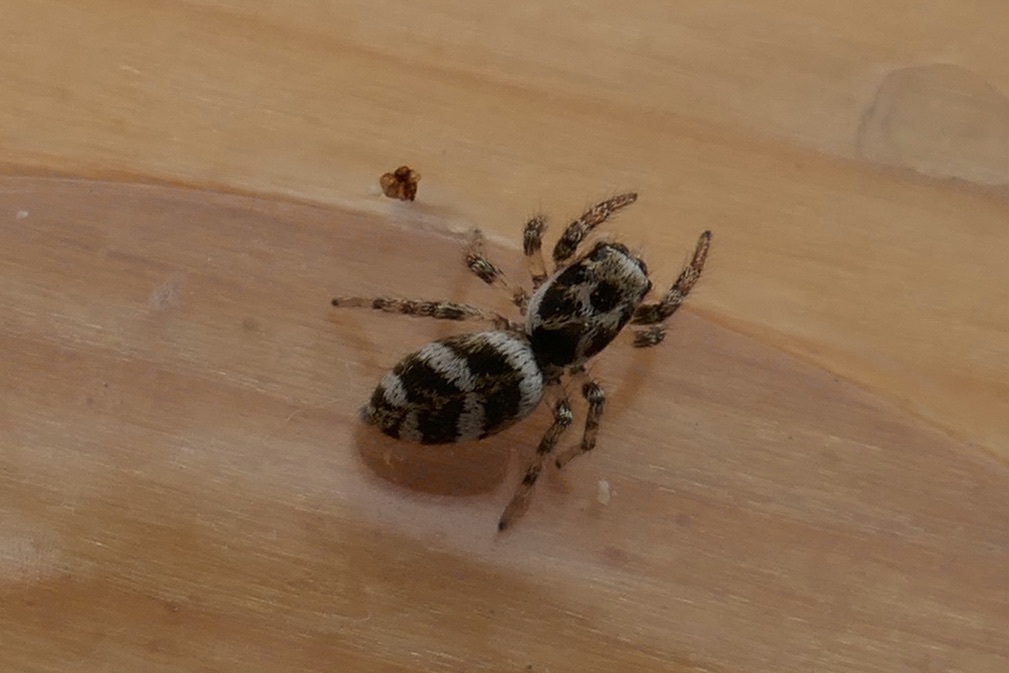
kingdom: Animalia
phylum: Arthropoda
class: Arachnida
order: Araneae
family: Salticidae
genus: Salticus
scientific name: Salticus scenicus
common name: Zebra jumper
